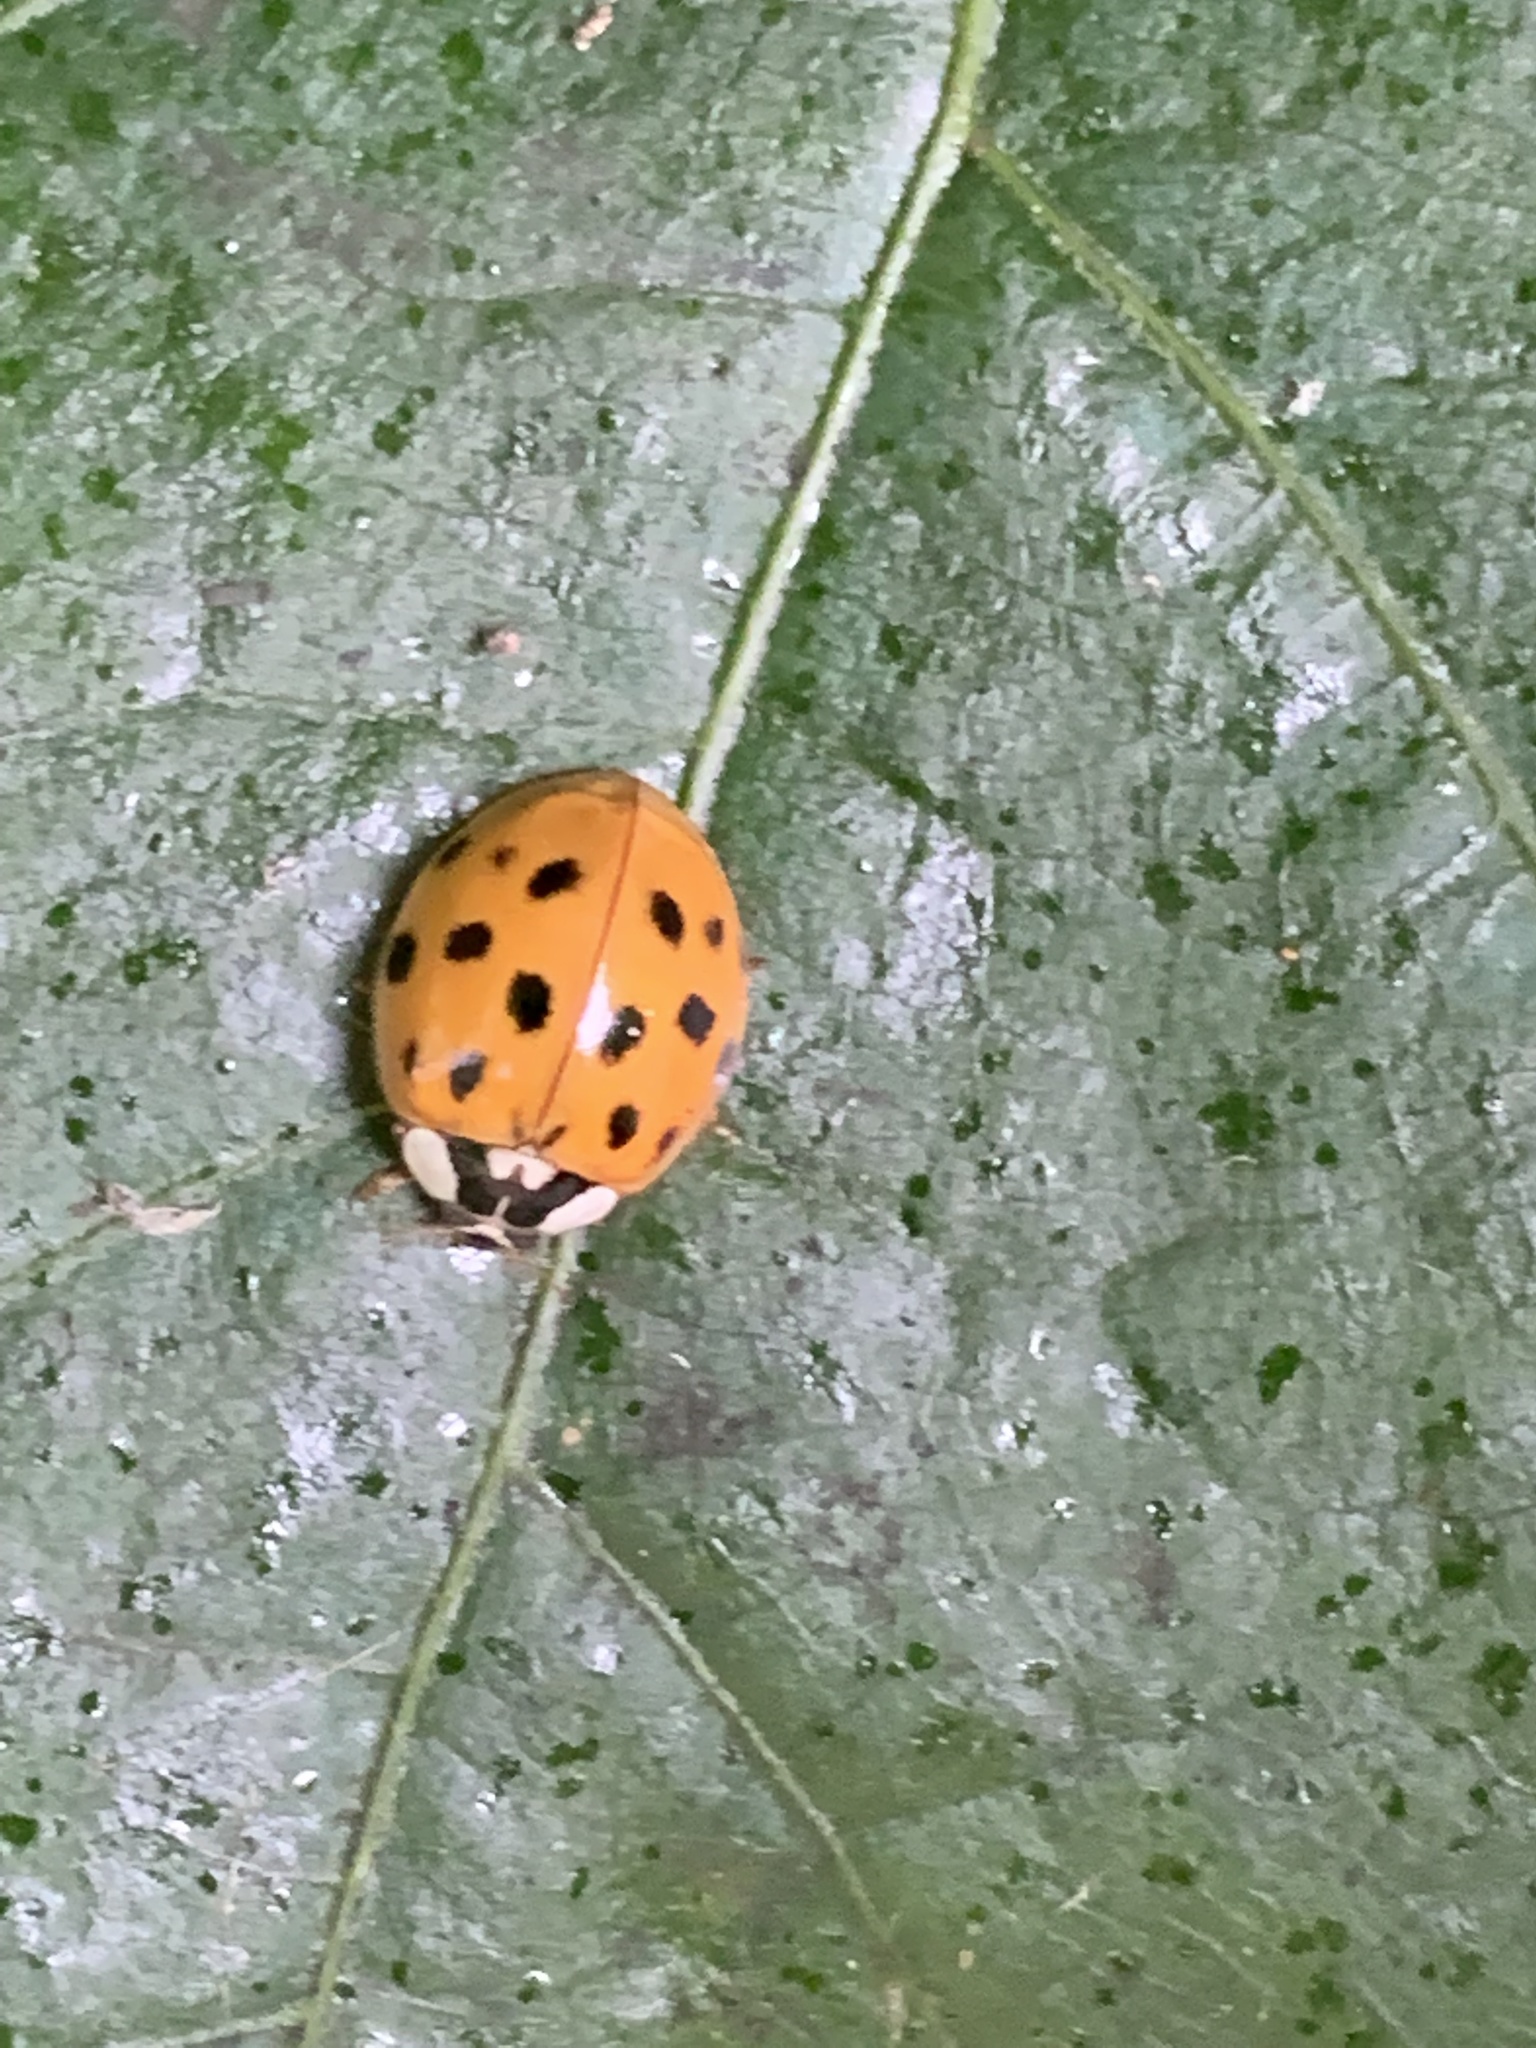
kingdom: Animalia
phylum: Arthropoda
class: Insecta
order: Coleoptera
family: Coccinellidae
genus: Harmonia
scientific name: Harmonia axyridis
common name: Harlequin ladybird
